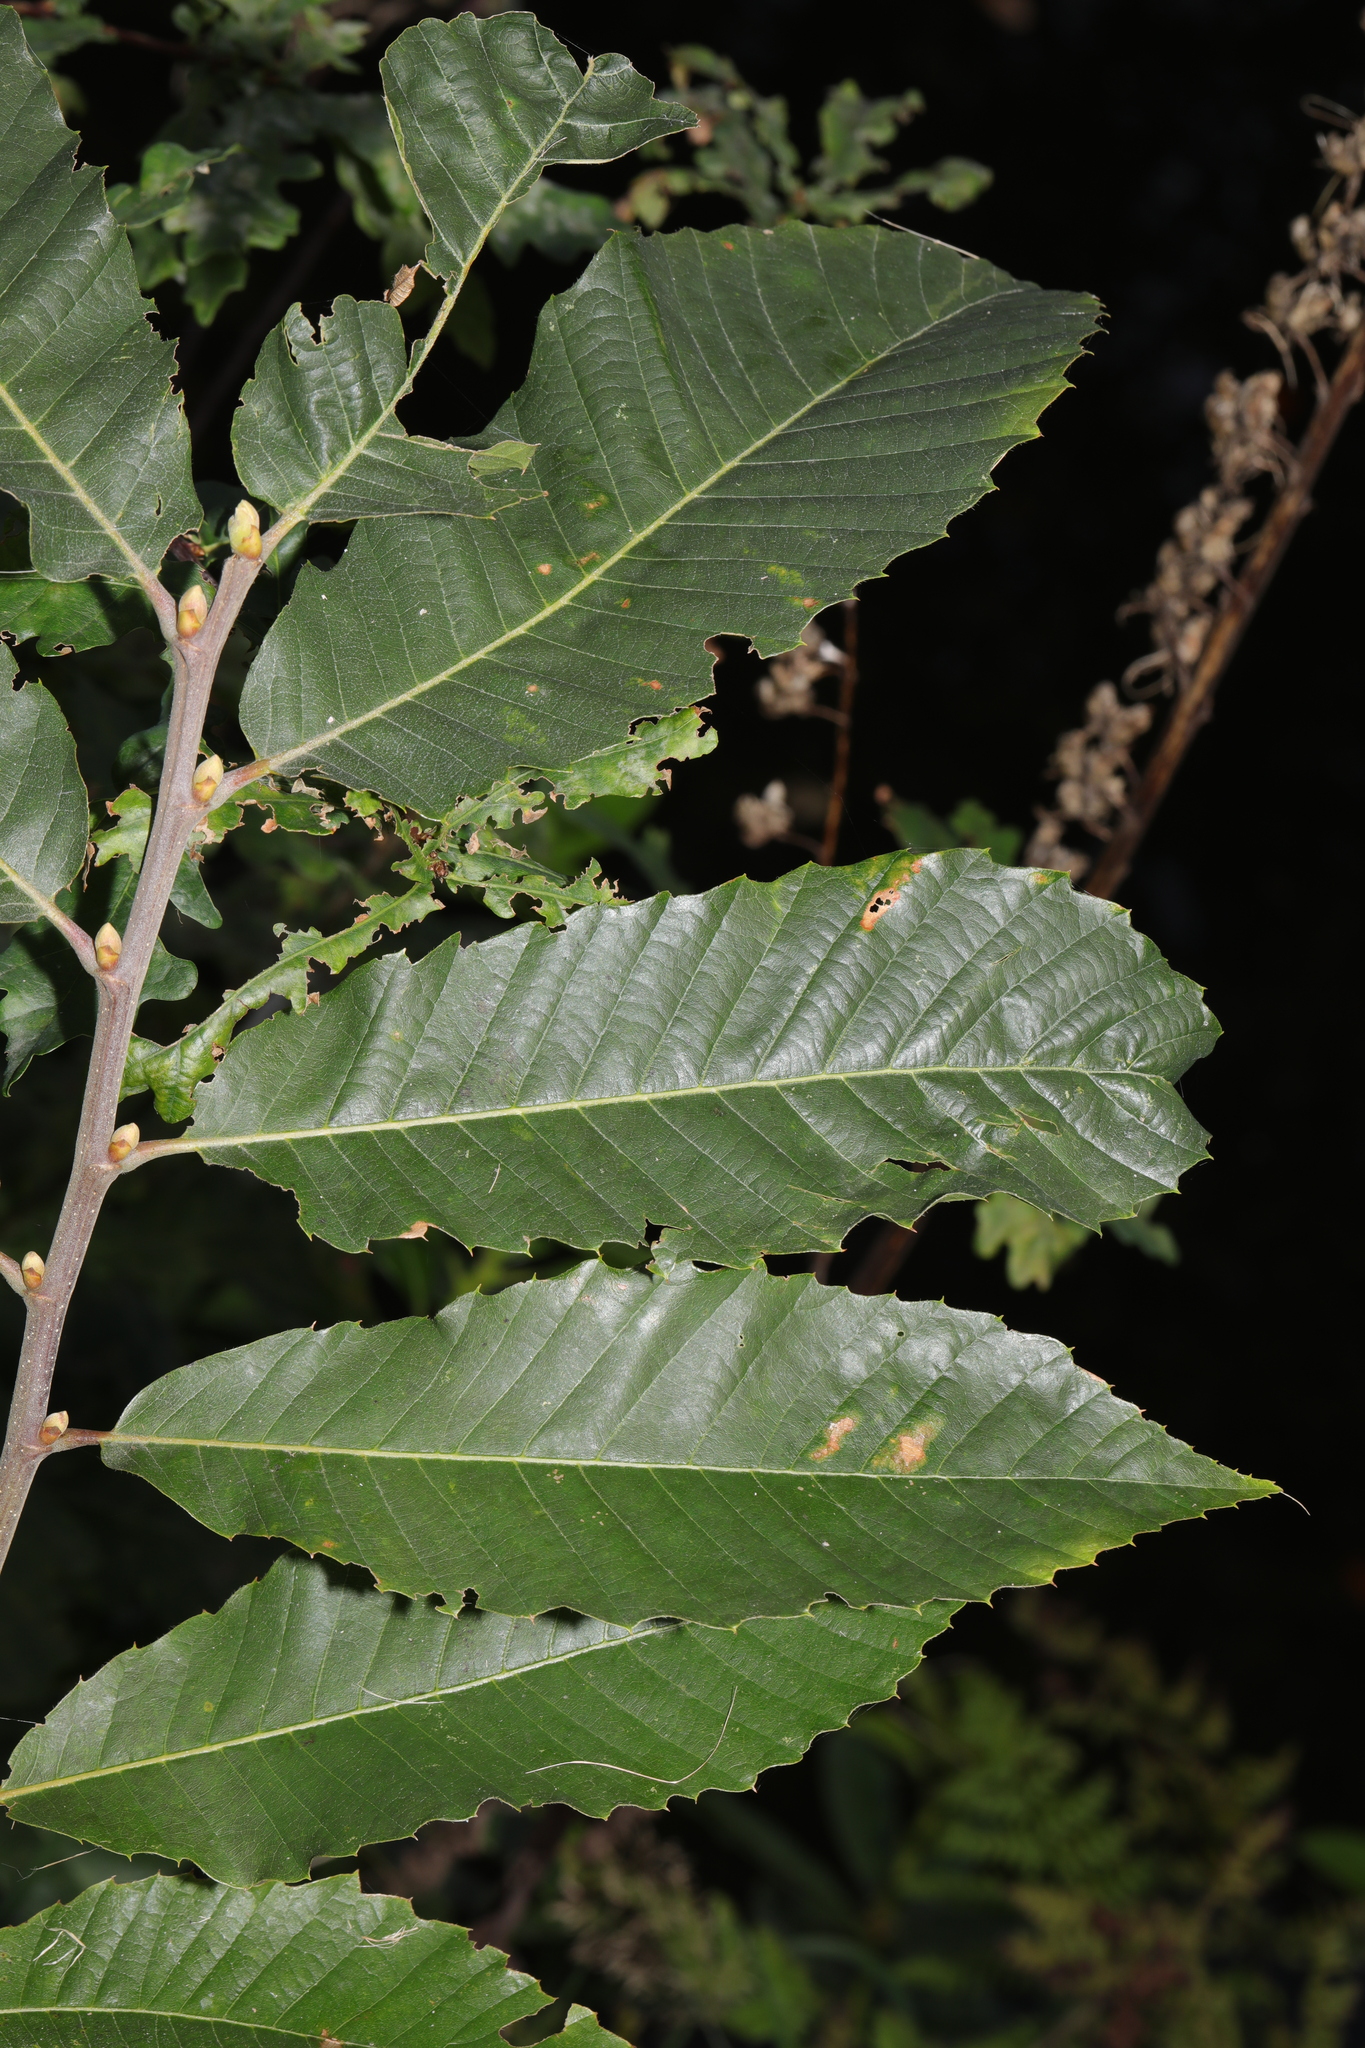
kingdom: Plantae
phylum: Tracheophyta
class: Magnoliopsida
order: Fagales
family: Fagaceae
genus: Castanea
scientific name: Castanea sativa
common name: Sweet chestnut
